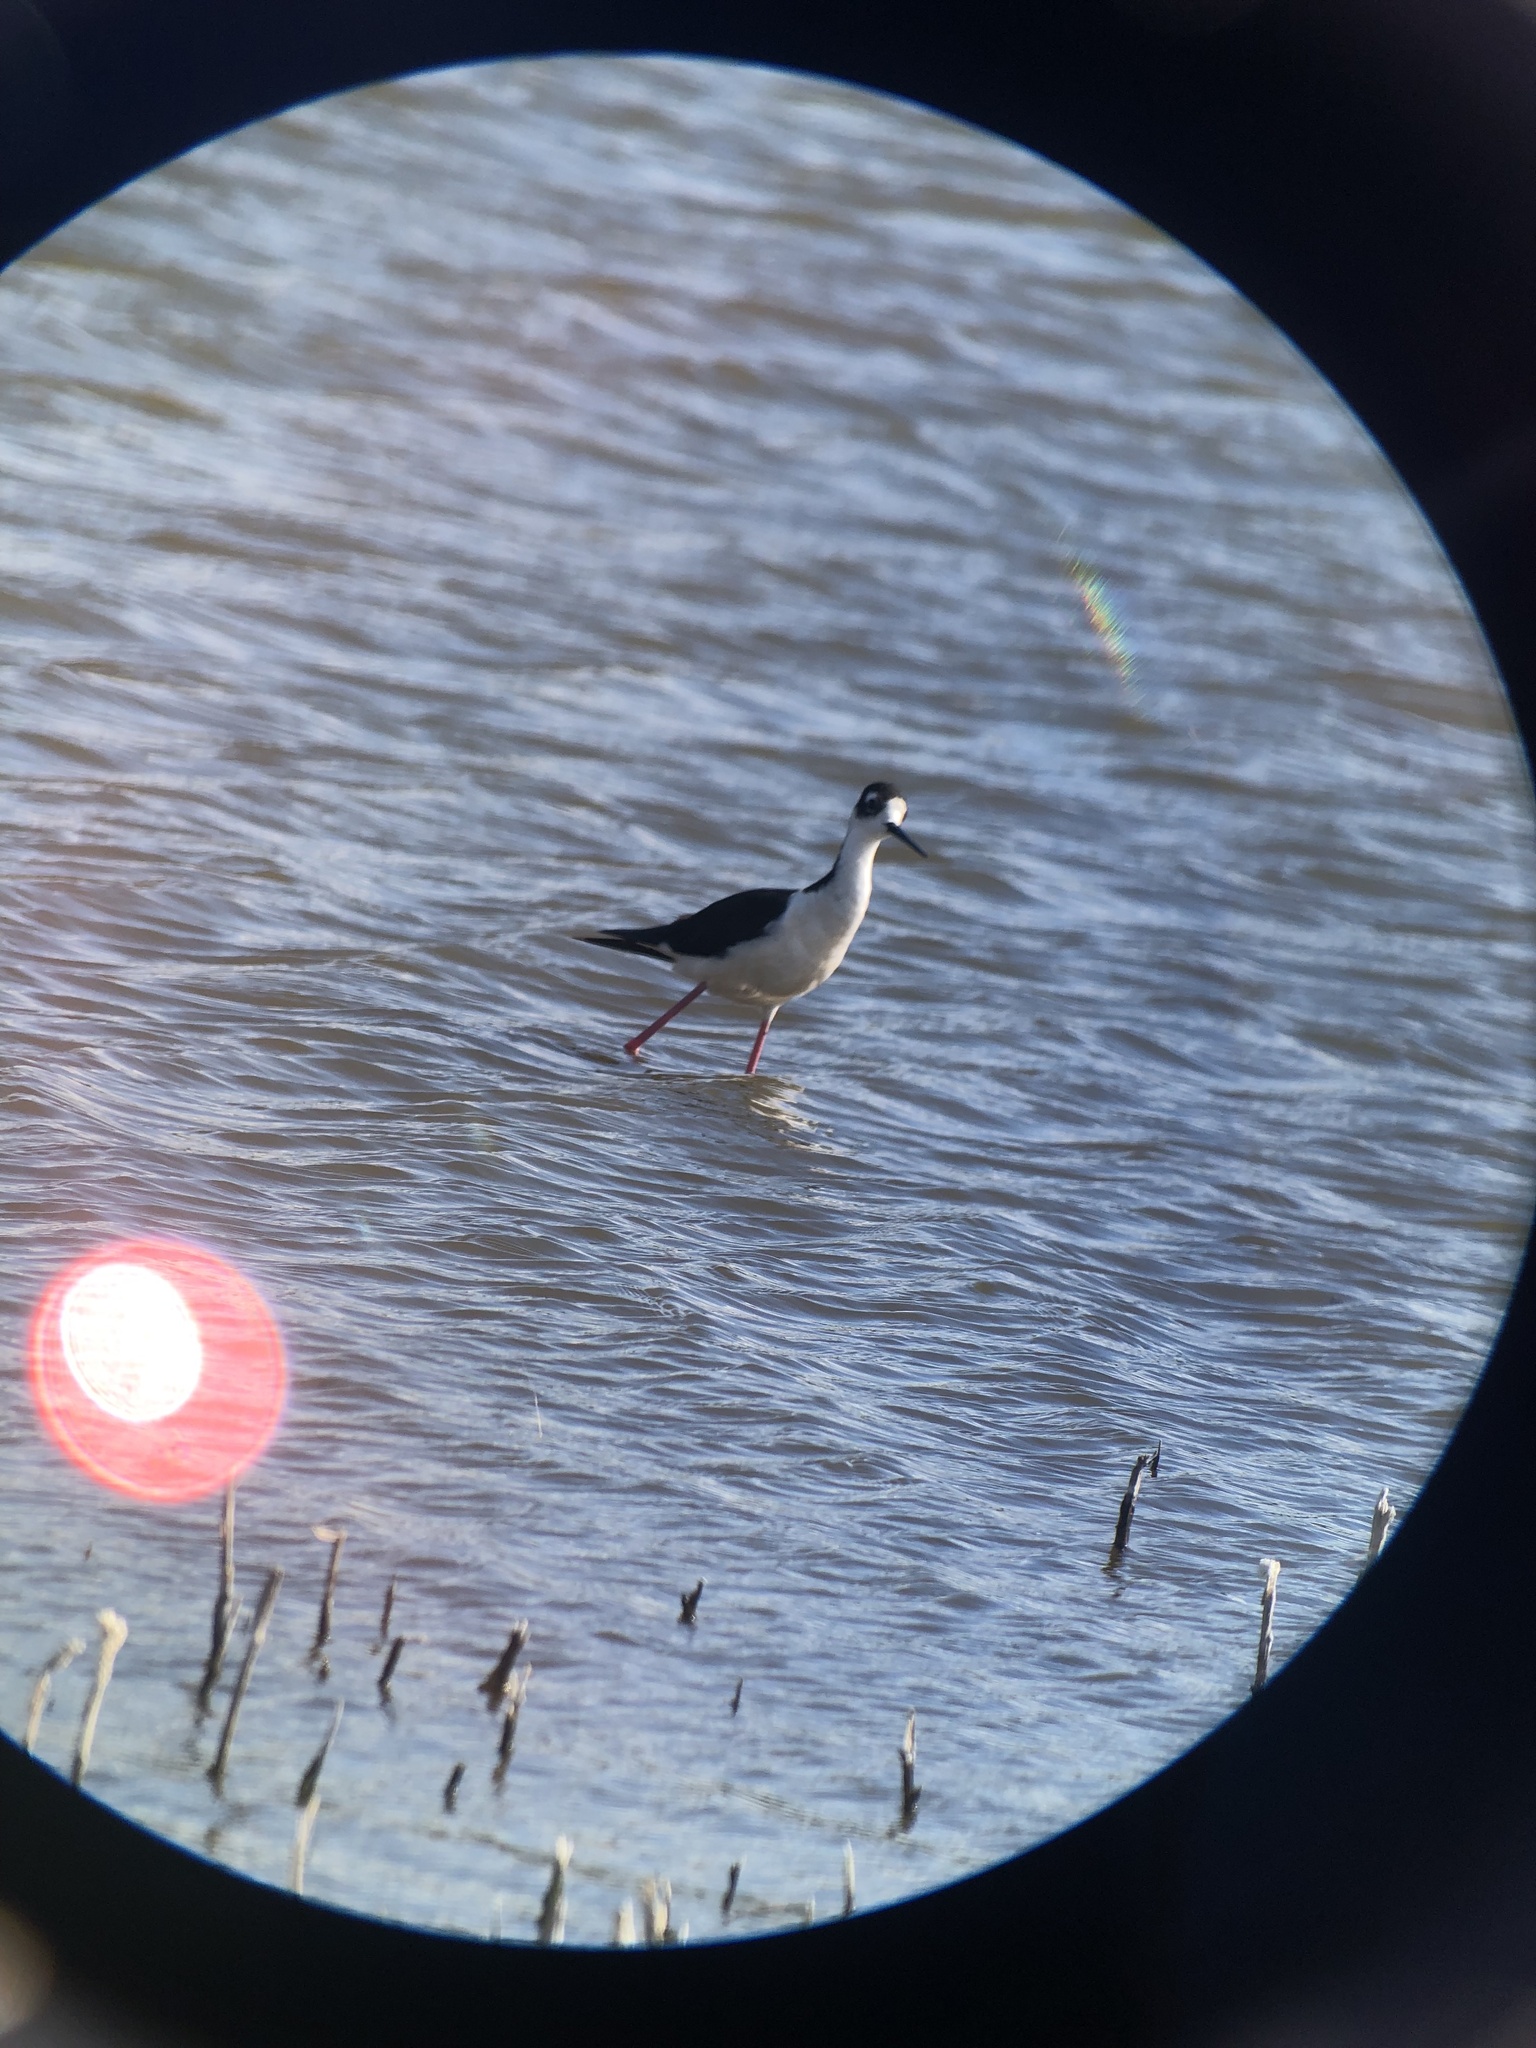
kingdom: Animalia
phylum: Chordata
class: Aves
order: Charadriiformes
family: Recurvirostridae
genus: Himantopus
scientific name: Himantopus mexicanus
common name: Black-necked stilt
